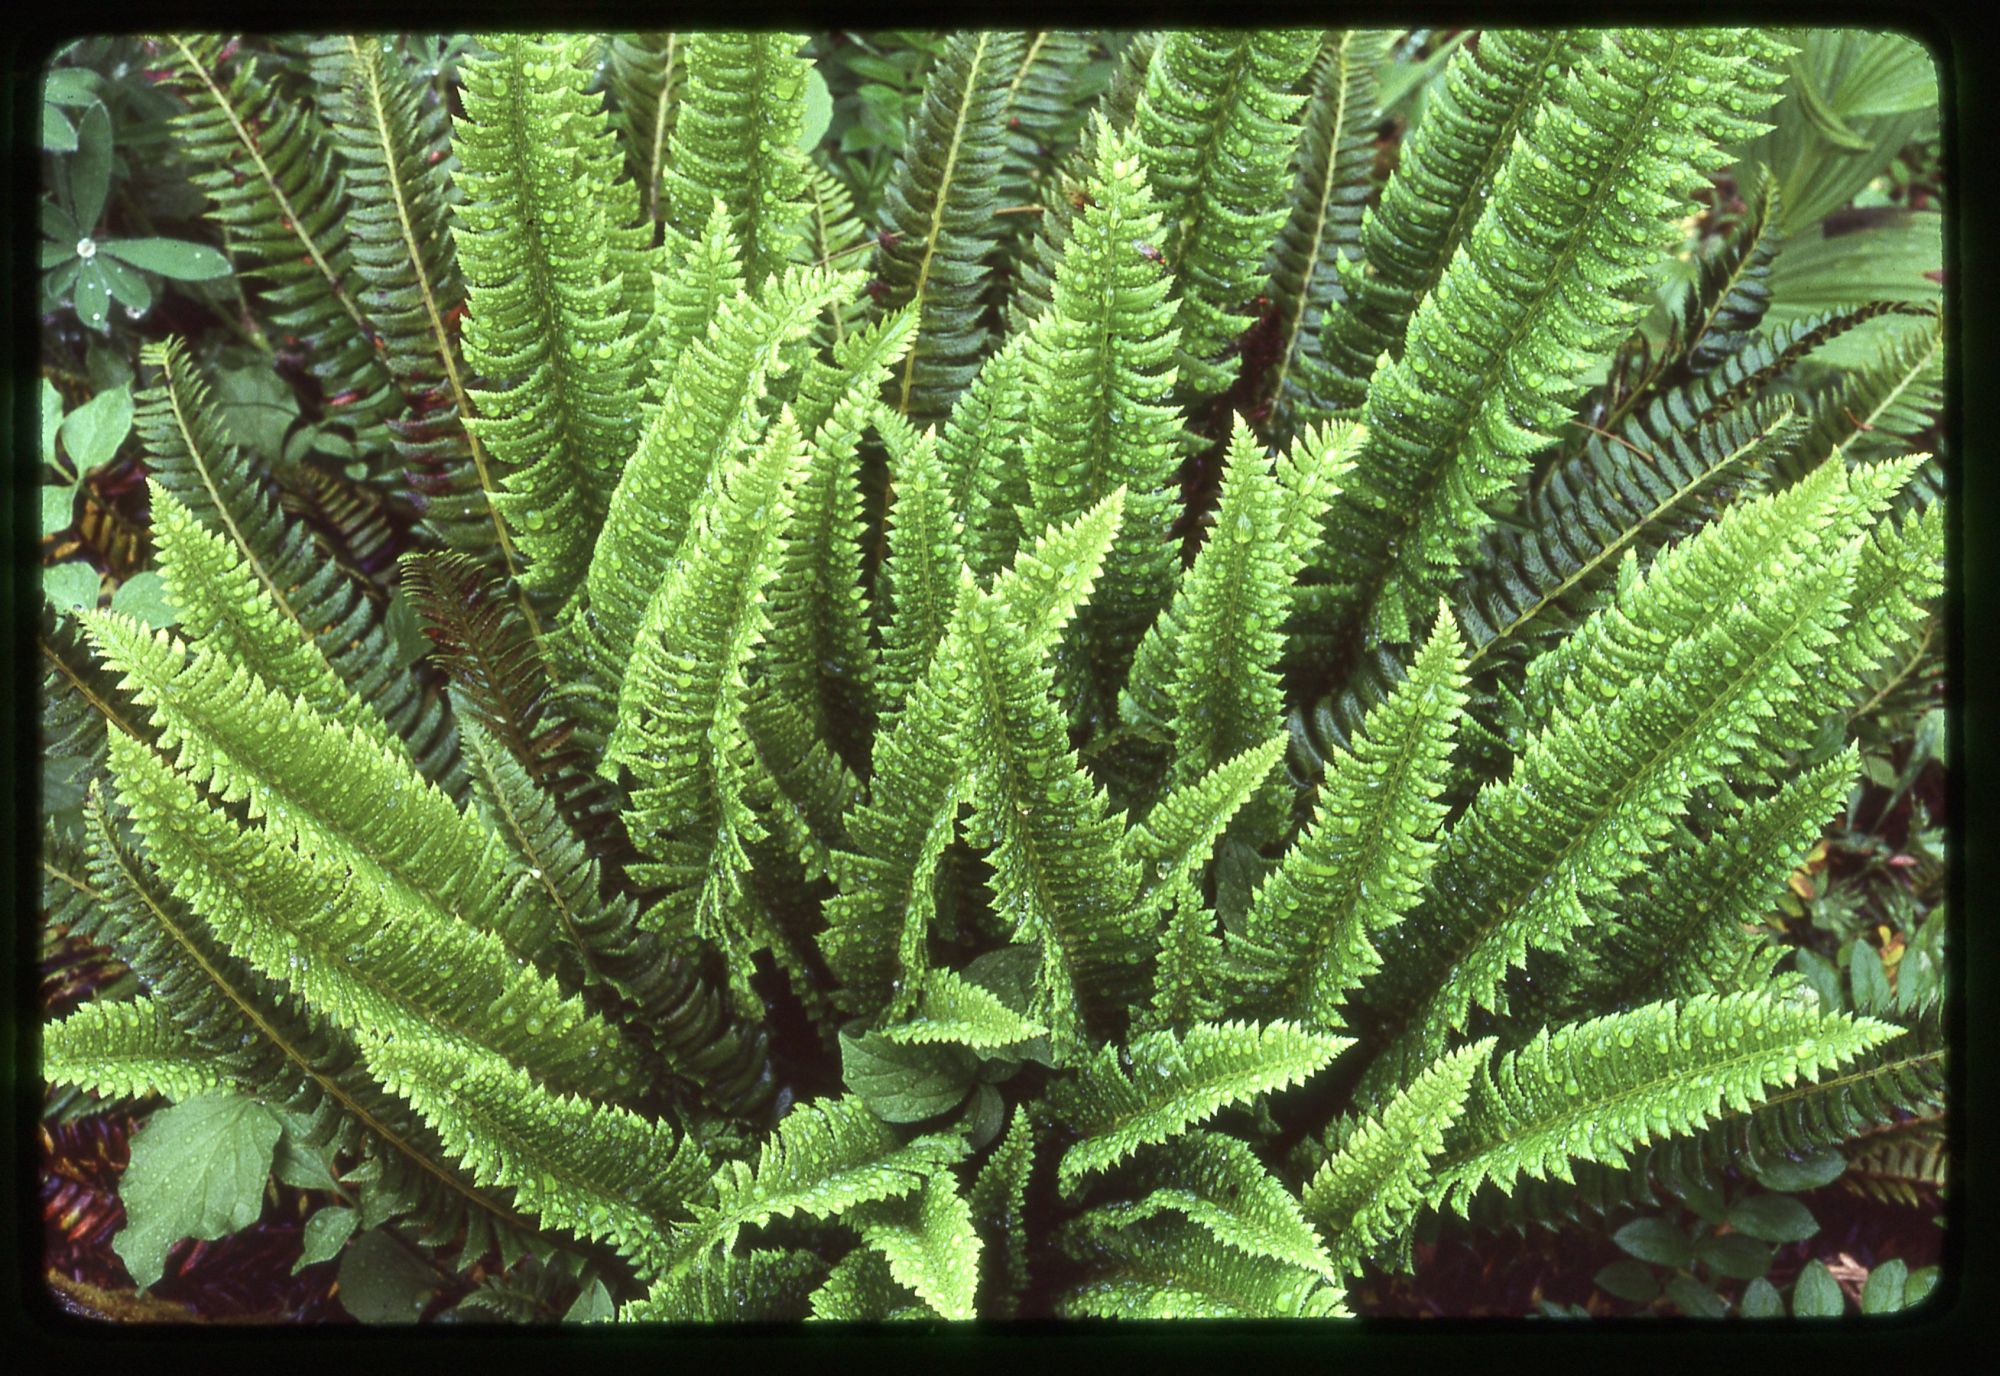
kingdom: Plantae
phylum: Tracheophyta
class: Polypodiopsida
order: Polypodiales
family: Dryopteridaceae
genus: Polystichum
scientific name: Polystichum lonchitis
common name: Holly fern
